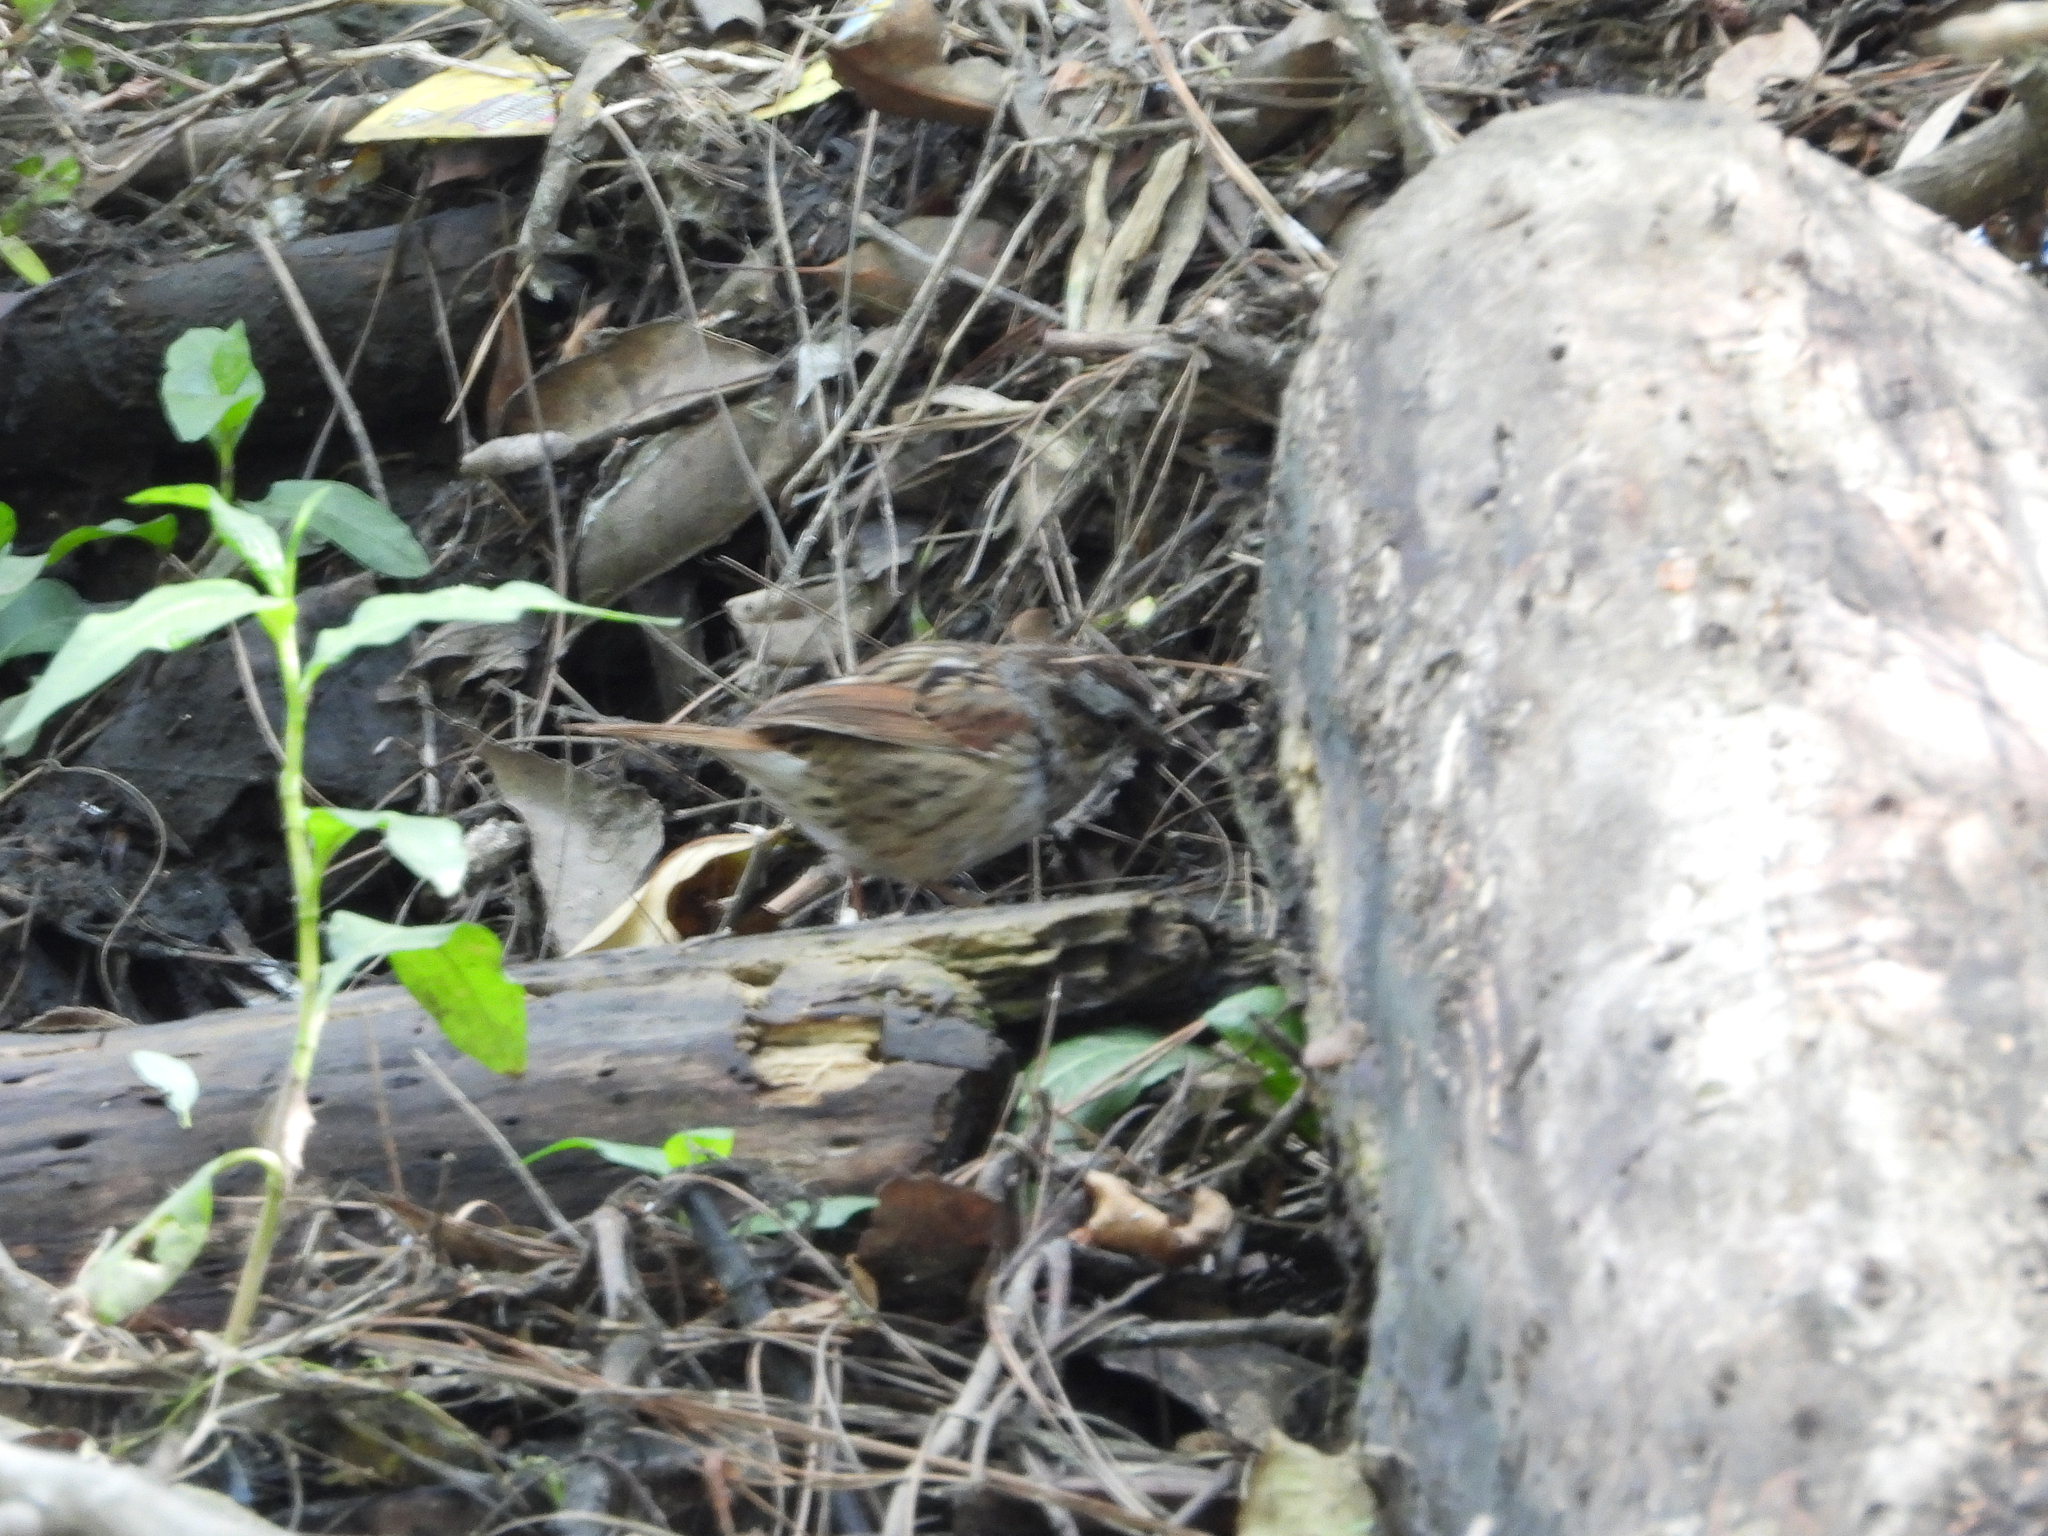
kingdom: Animalia
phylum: Chordata
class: Aves
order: Passeriformes
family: Passerellidae
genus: Melospiza
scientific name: Melospiza georgiana
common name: Swamp sparrow
